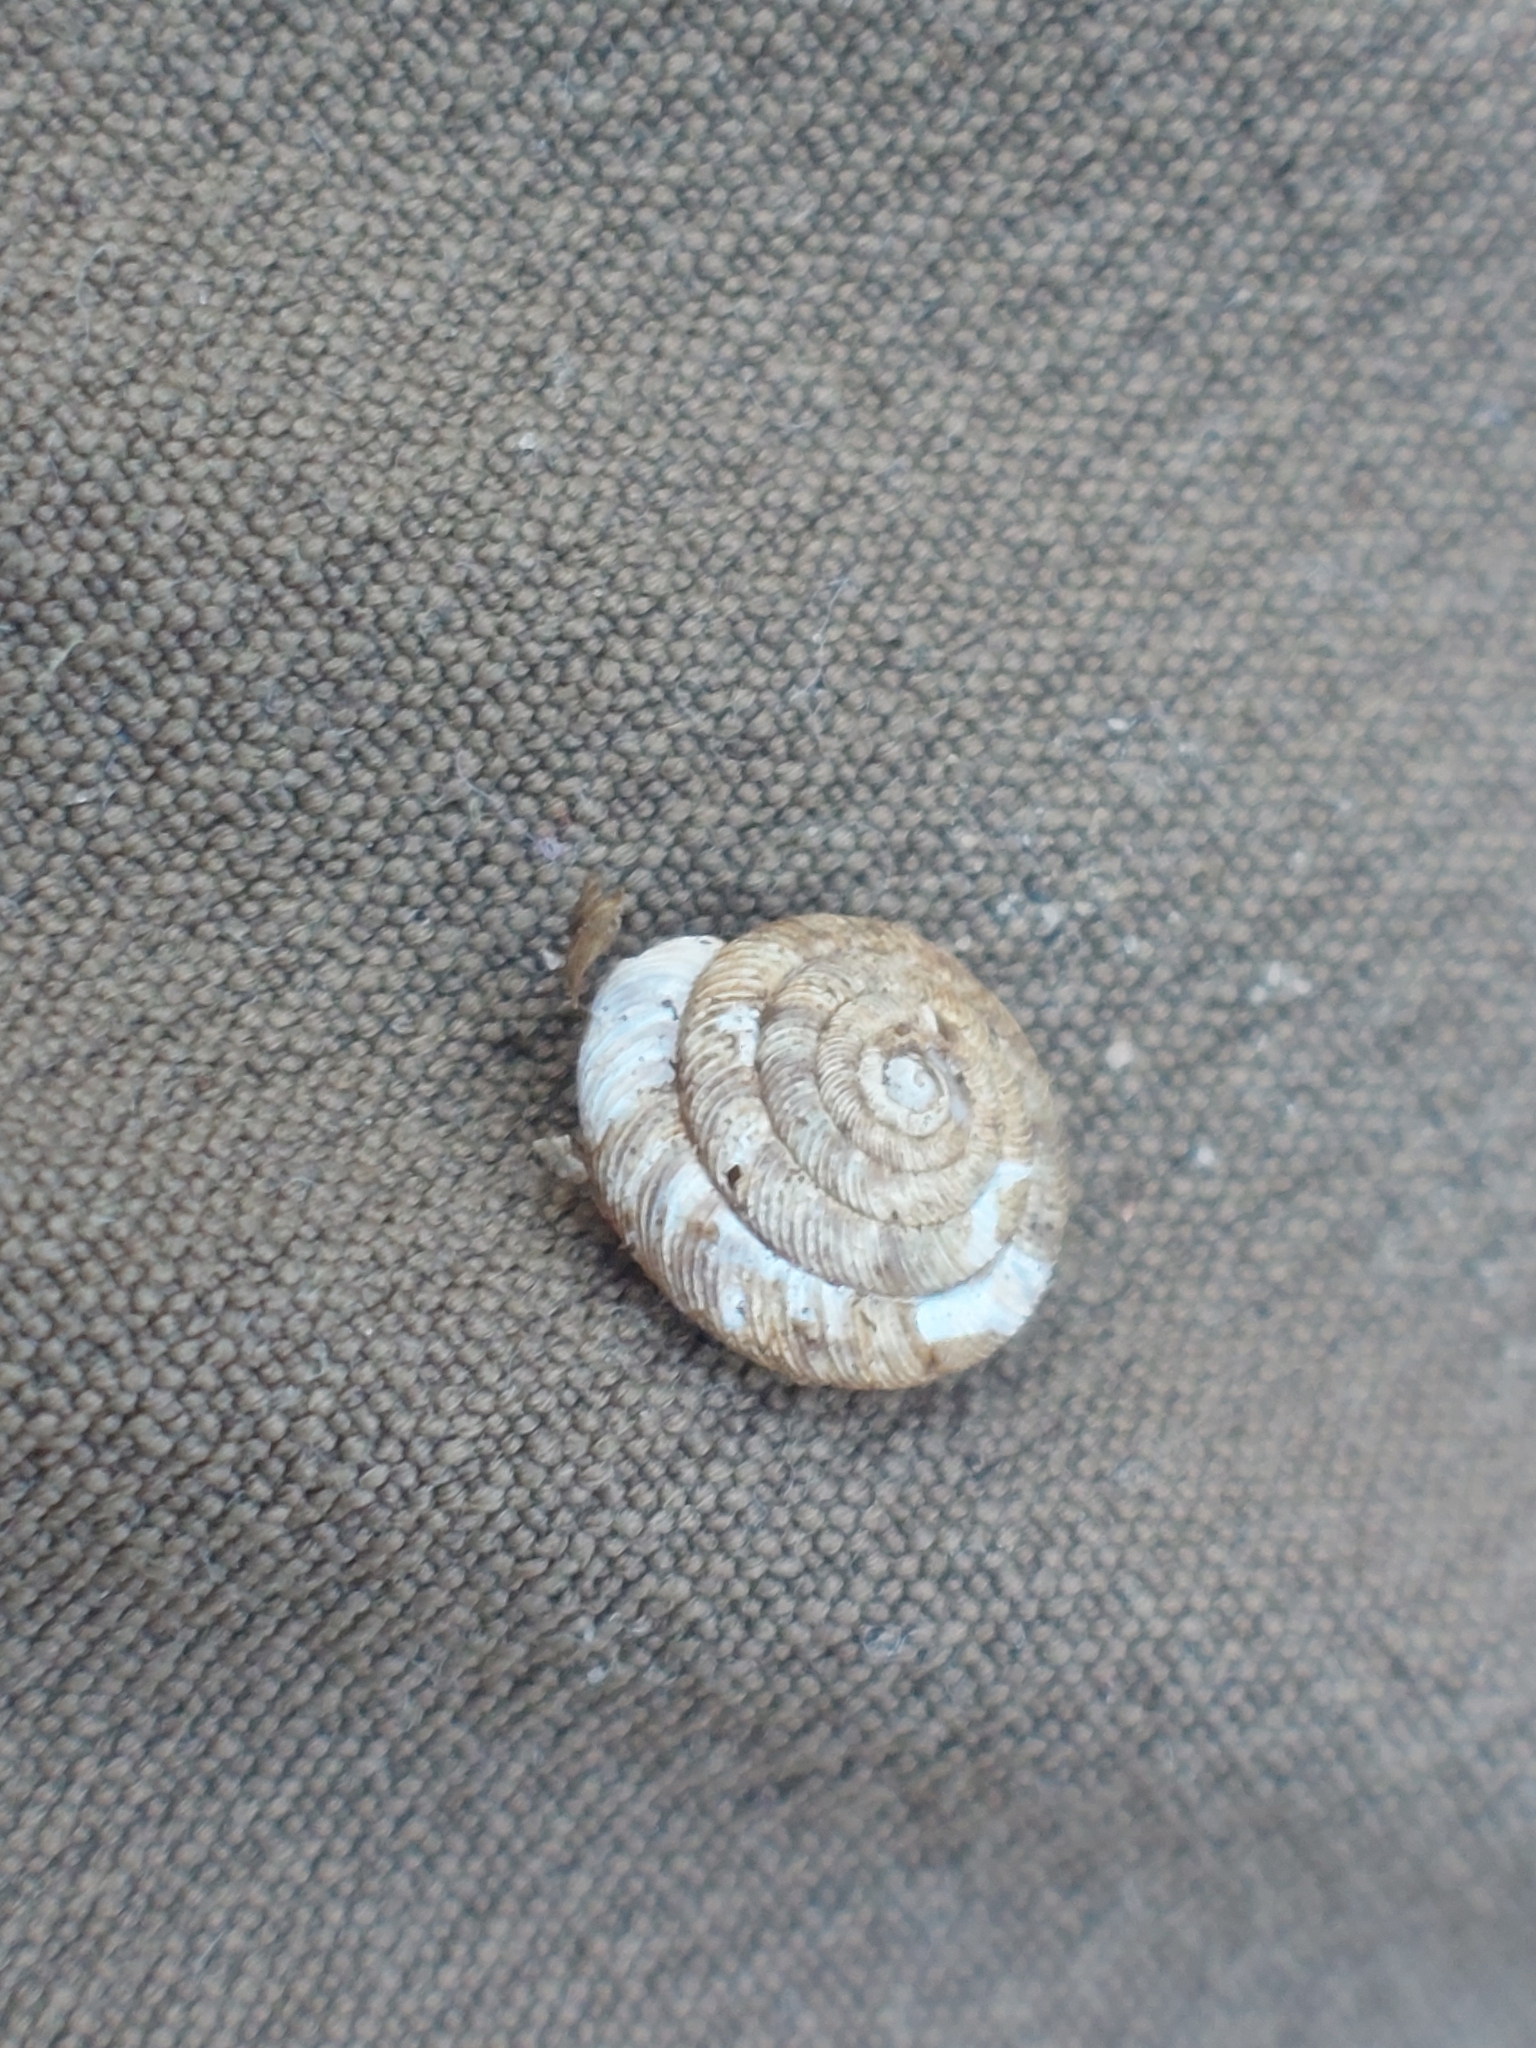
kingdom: Animalia
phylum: Mollusca
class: Gastropoda
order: Stylommatophora
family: Discidae
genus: Discus
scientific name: Discus rotundatus
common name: Rounded snail
